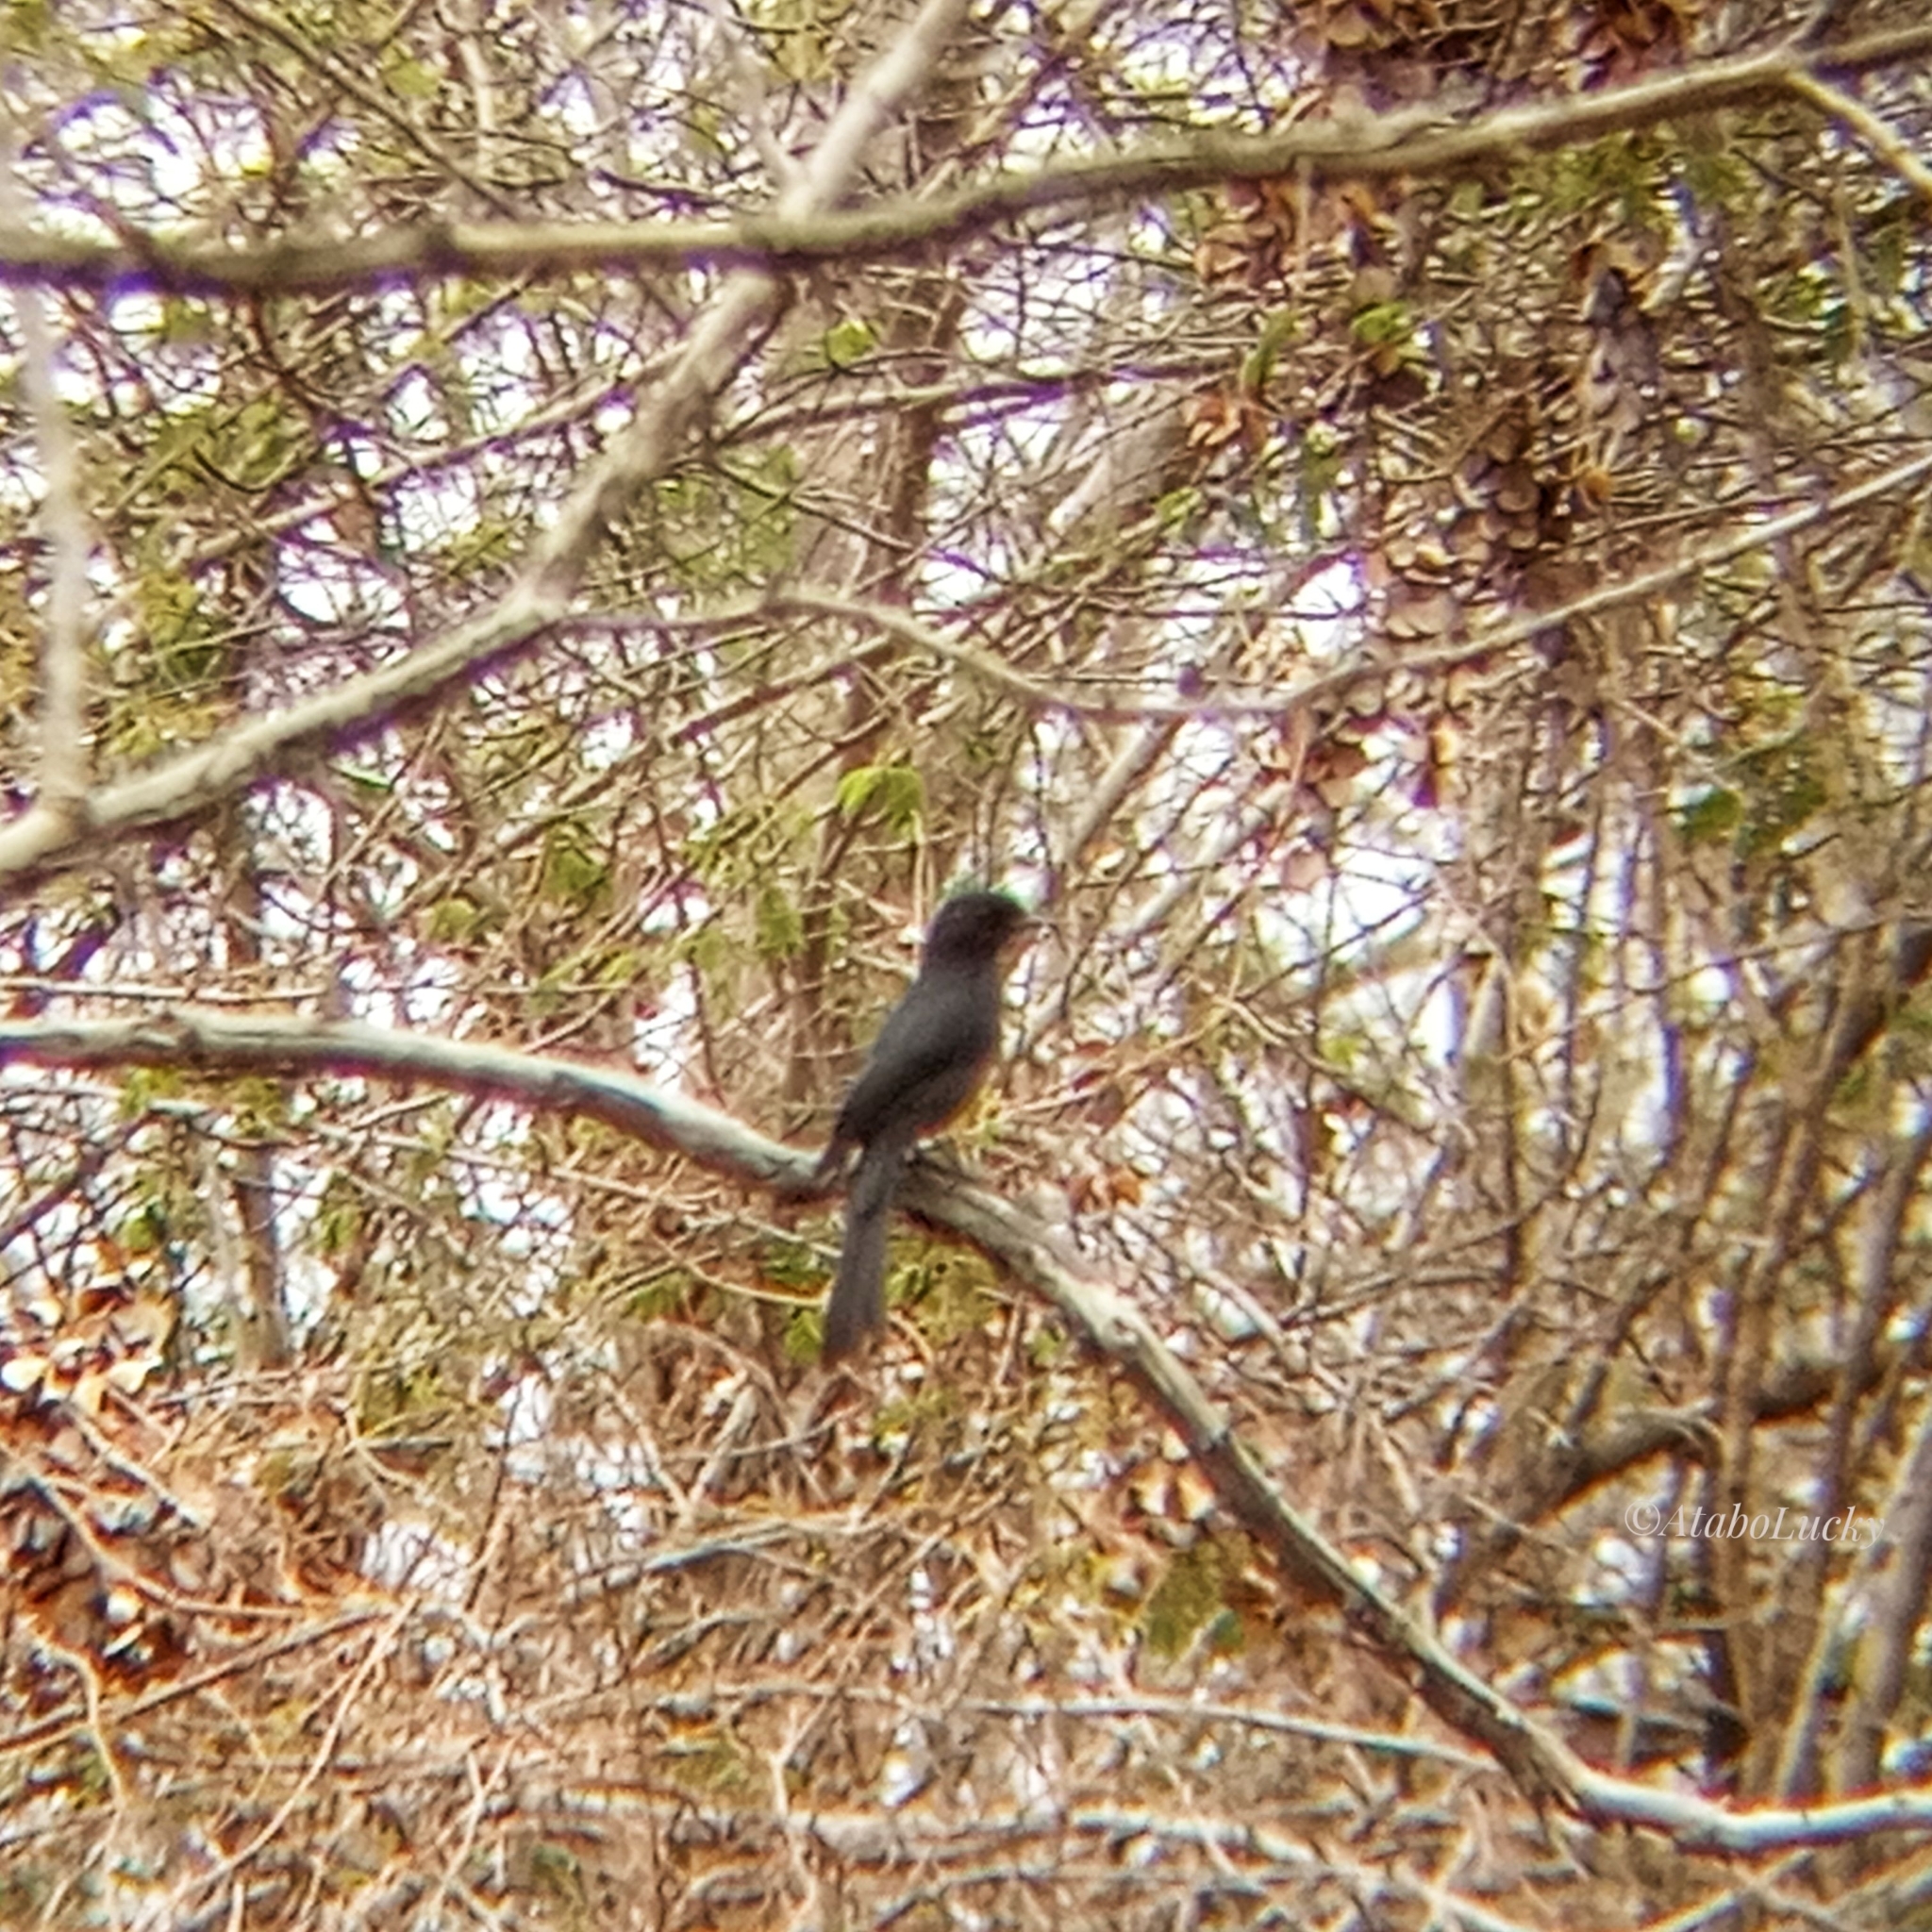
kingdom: Animalia
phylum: Chordata
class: Aves
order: Passeriformes
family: Muscicapidae
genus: Melaenornis
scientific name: Melaenornis edolioides
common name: Northern black flycatcher
